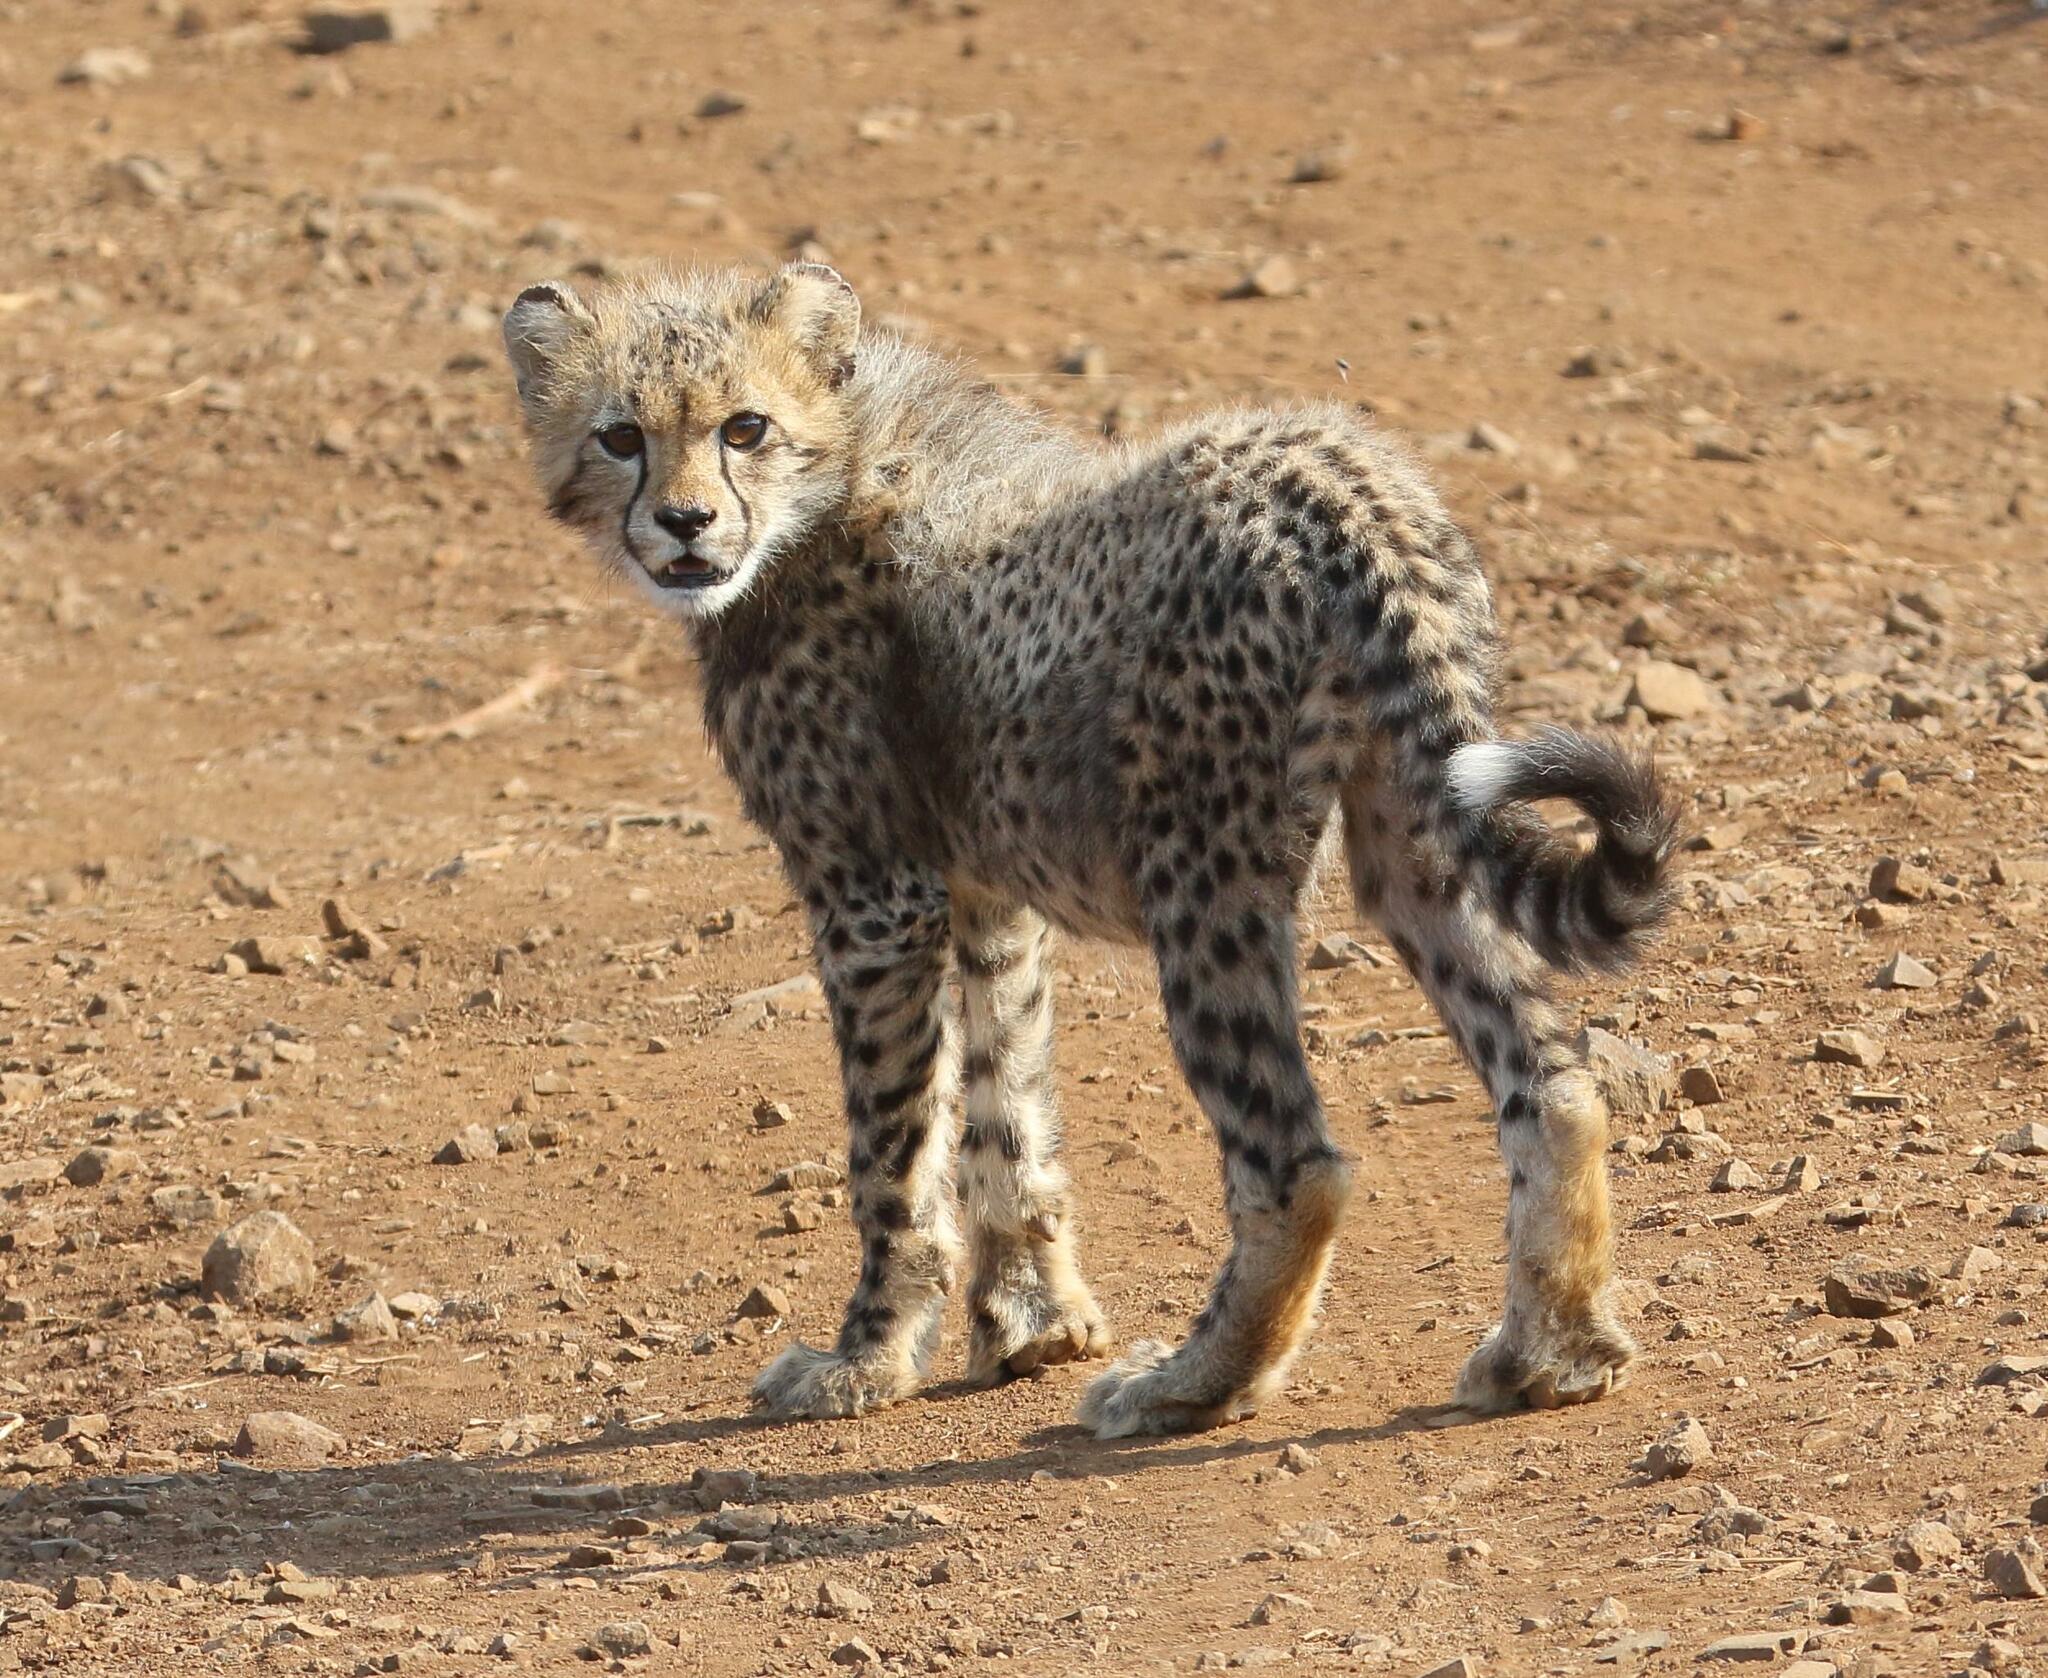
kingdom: Animalia
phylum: Chordata
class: Mammalia
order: Carnivora
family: Felidae
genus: Acinonyx
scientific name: Acinonyx jubatus
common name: Cheetah
